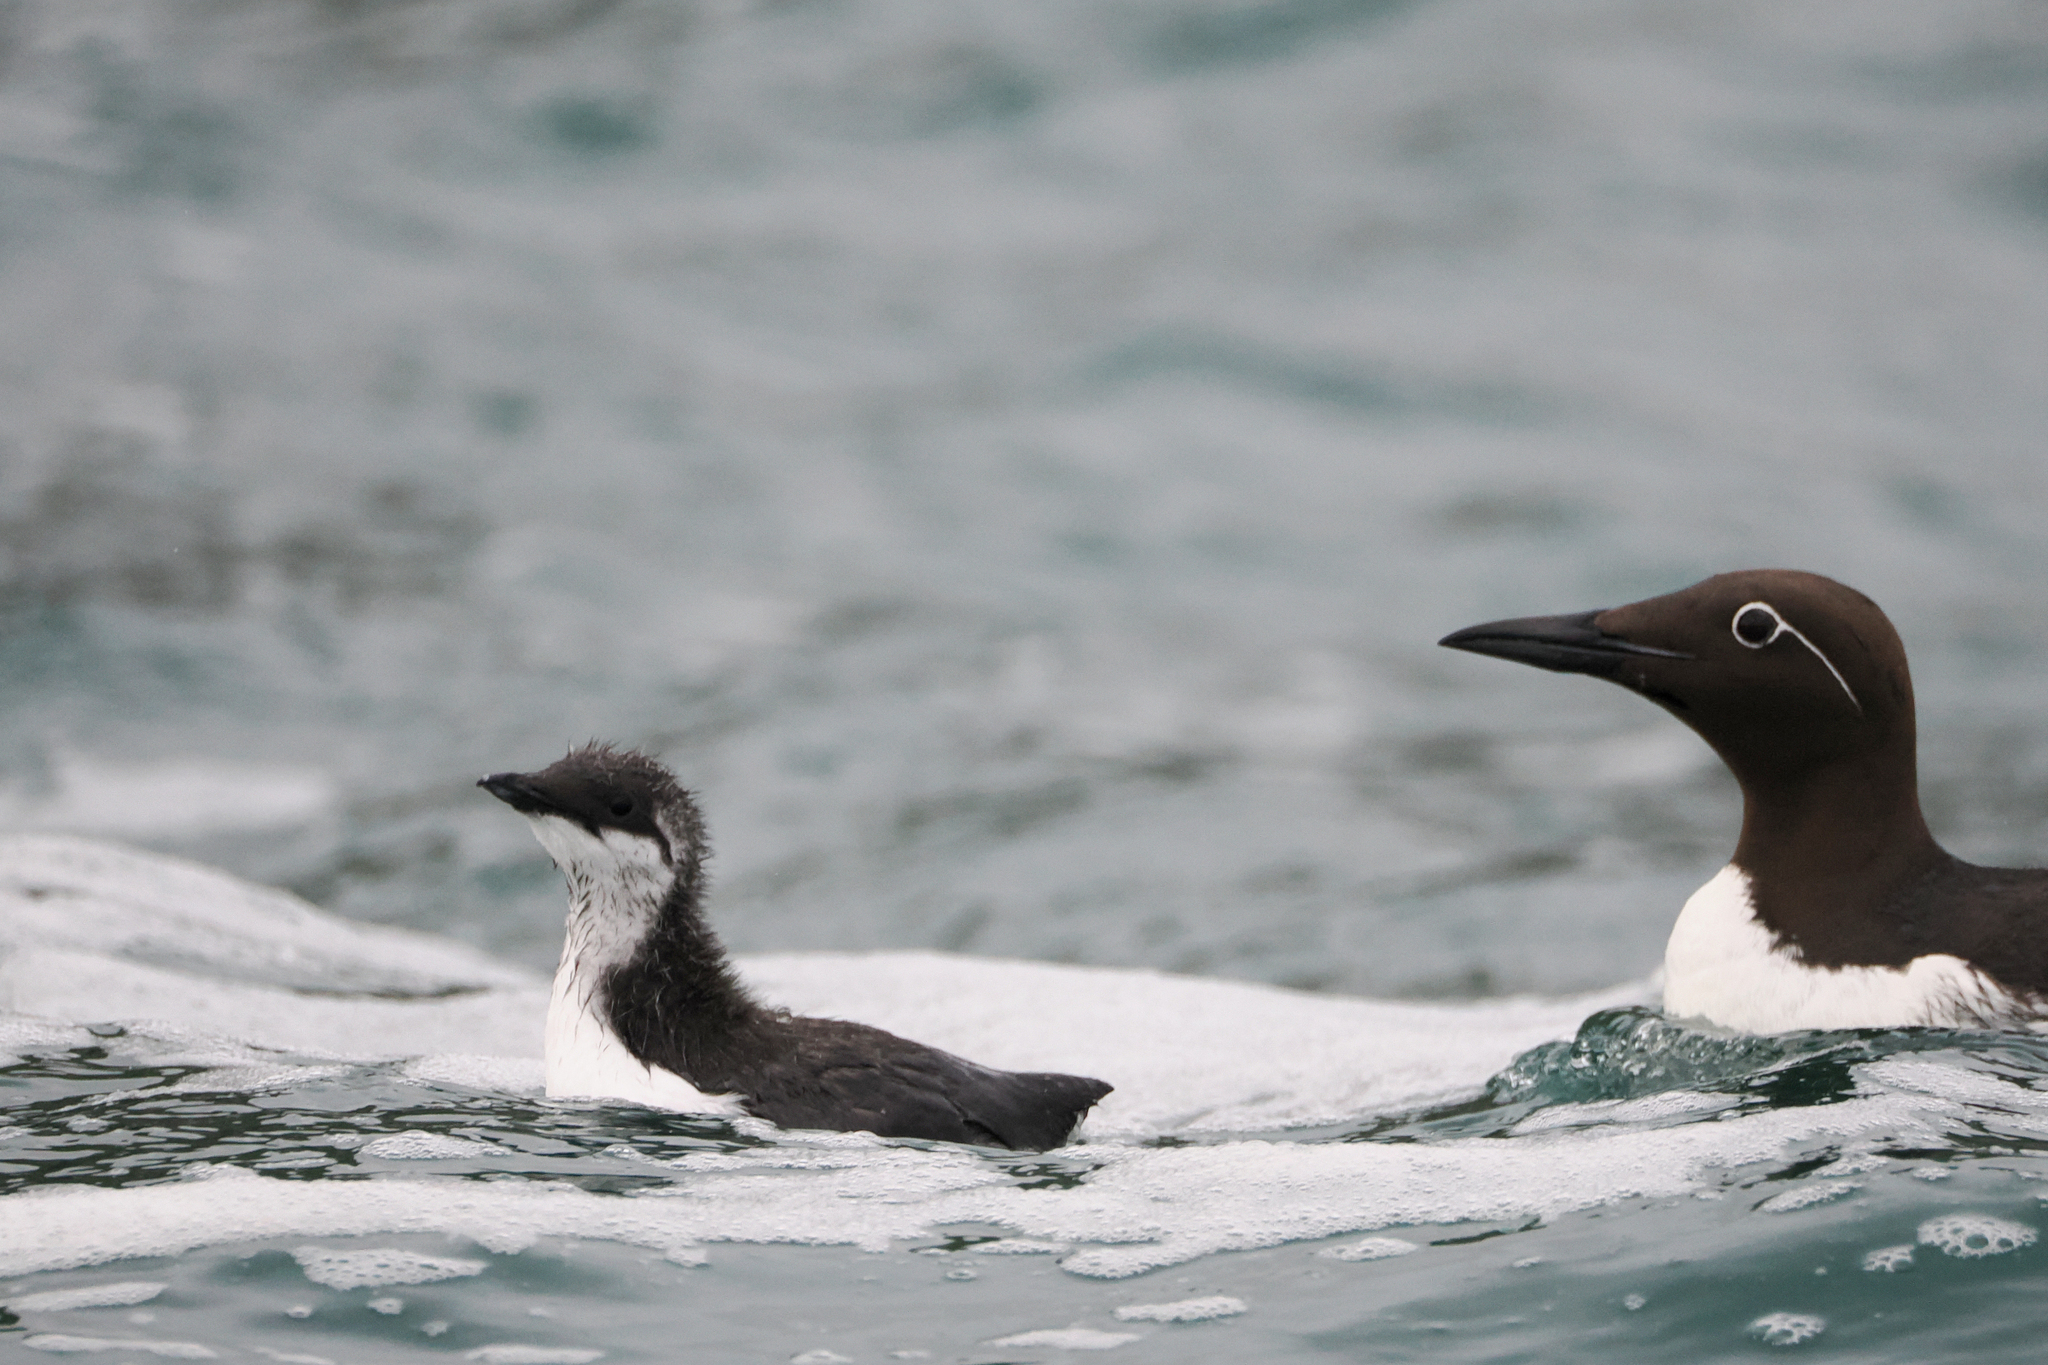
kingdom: Animalia
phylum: Chordata
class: Aves
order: Charadriiformes
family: Alcidae
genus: Uria
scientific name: Uria aalge
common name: Common murre
